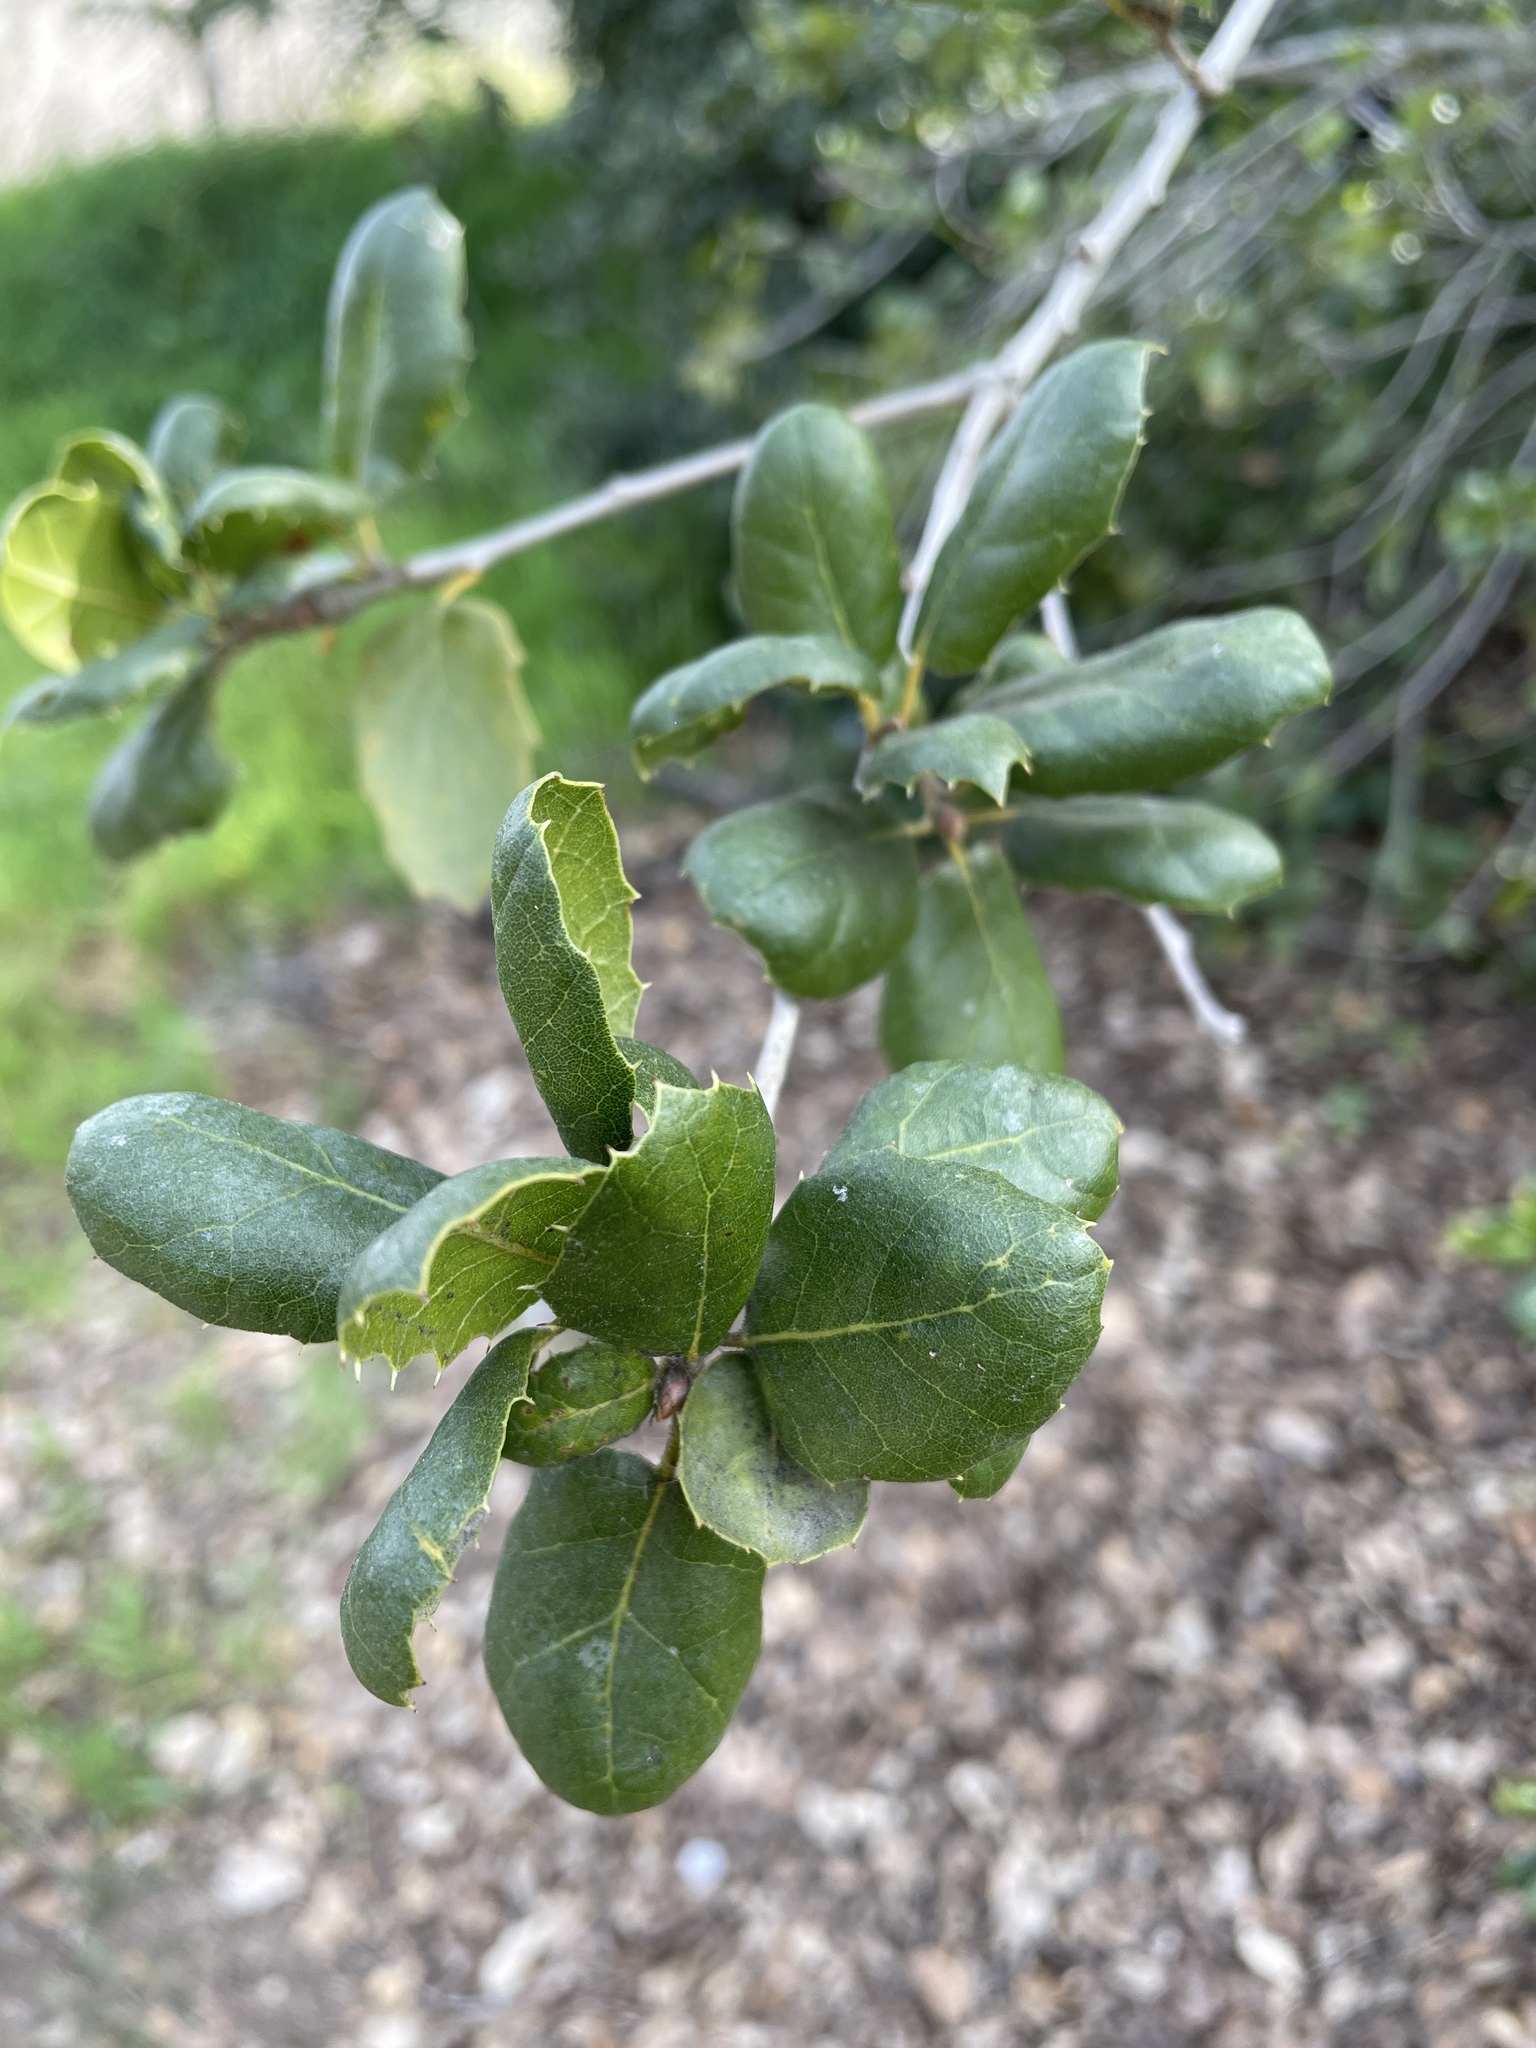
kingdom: Plantae
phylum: Tracheophyta
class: Magnoliopsida
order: Fagales
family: Fagaceae
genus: Quercus
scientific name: Quercus agrifolia
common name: California live oak
